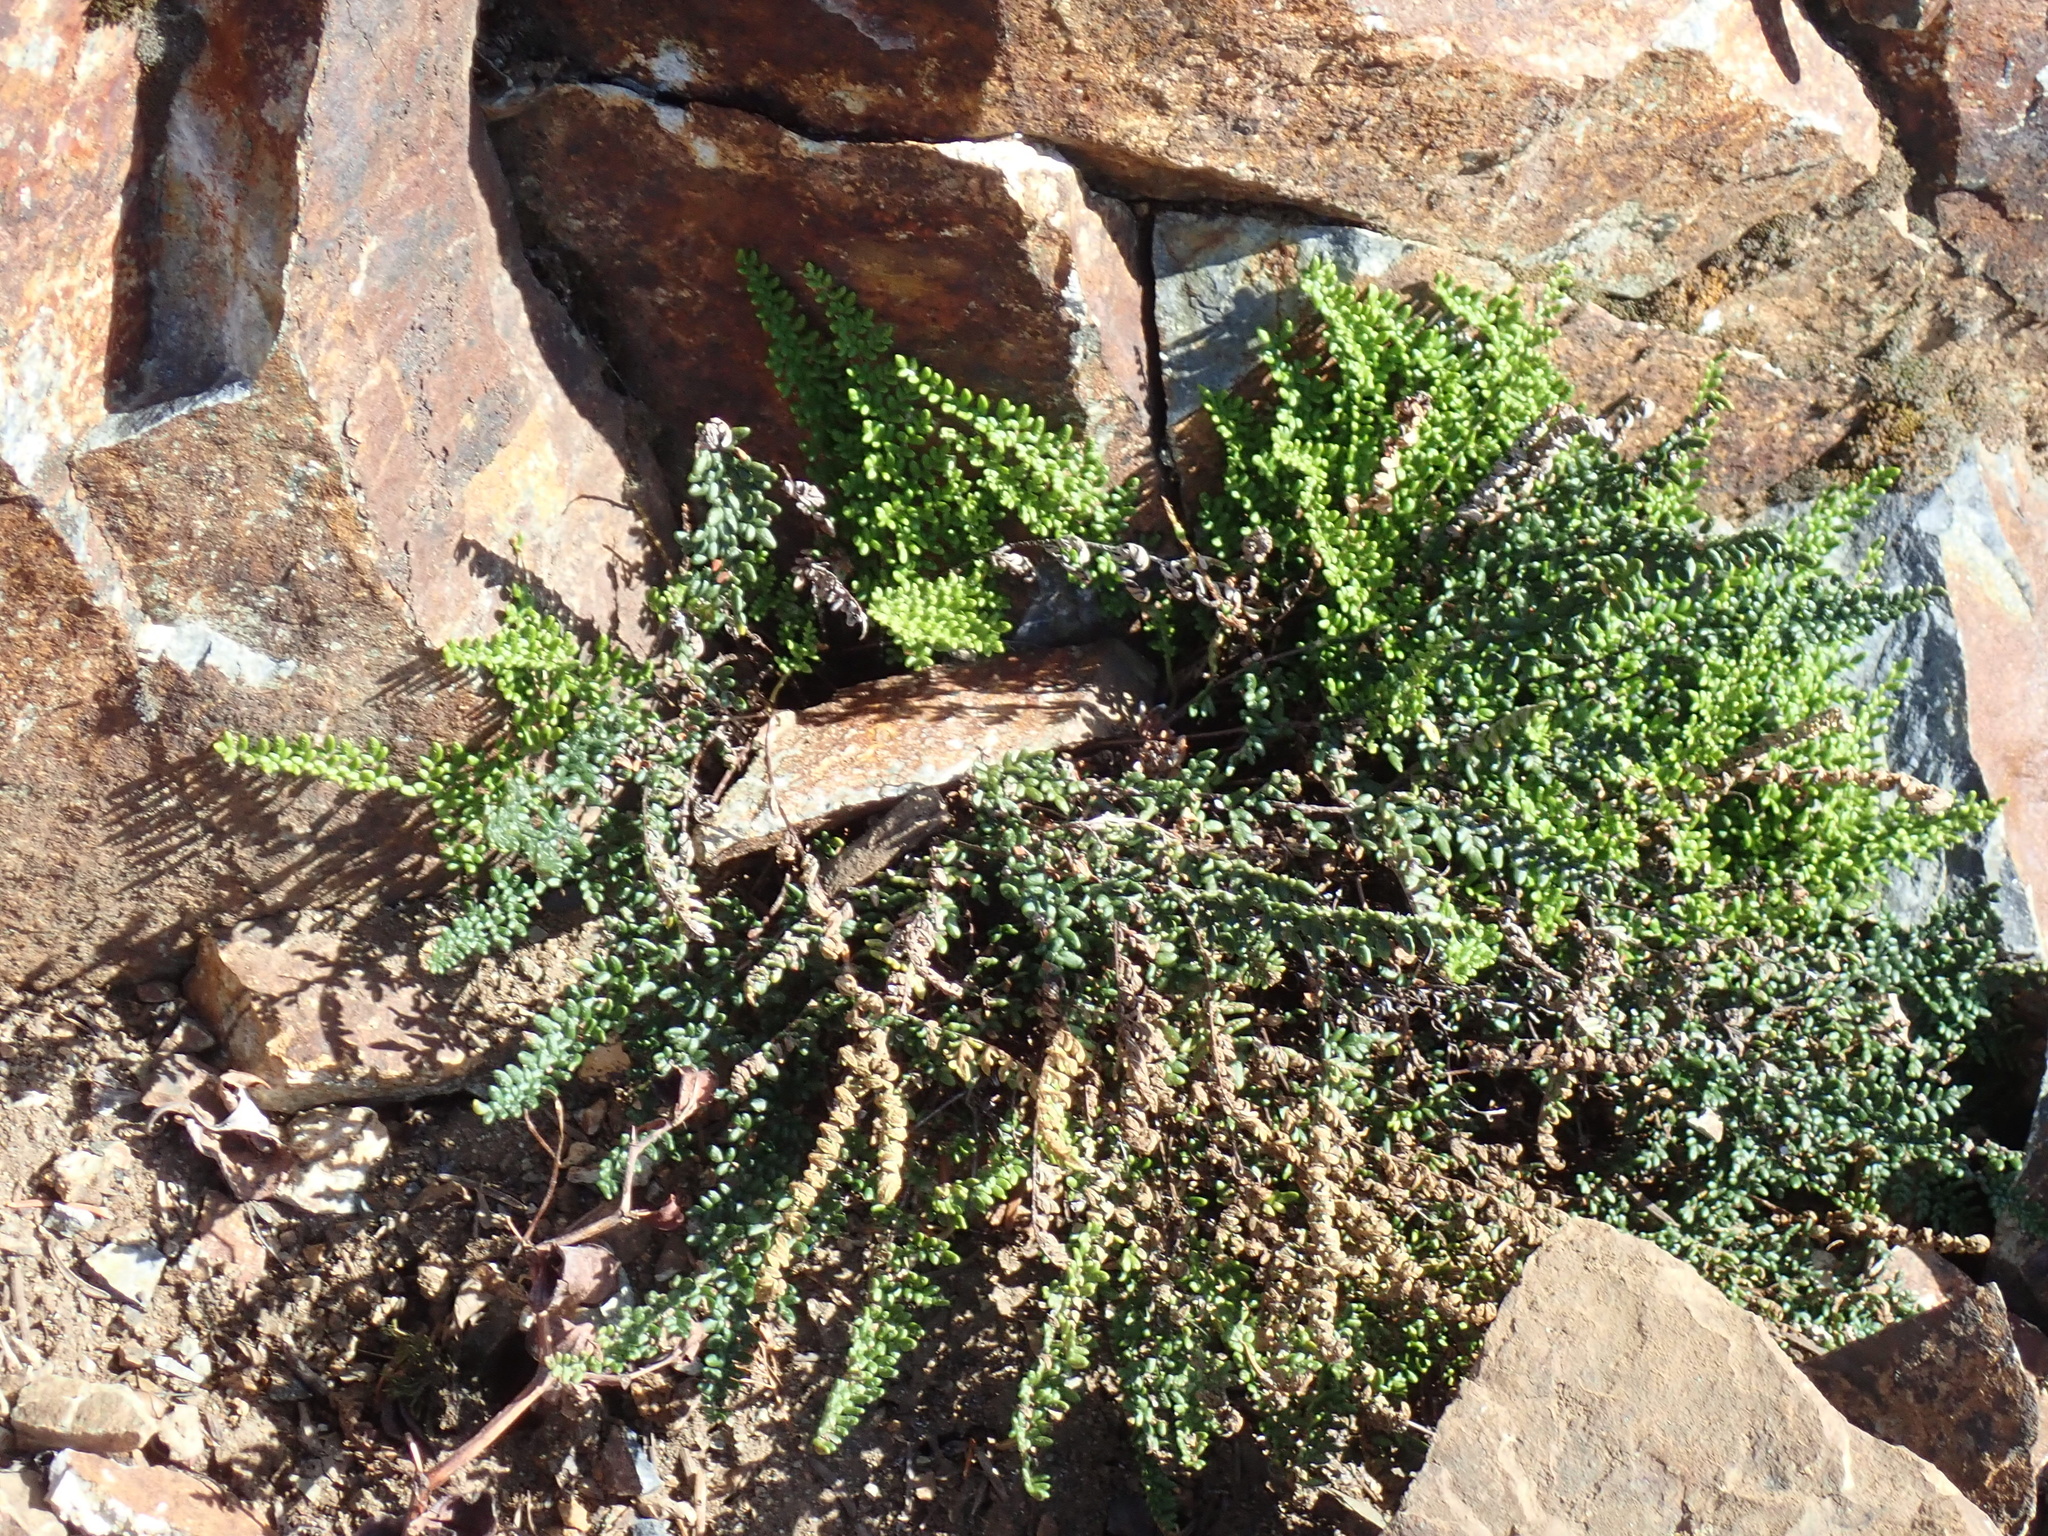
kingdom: Plantae
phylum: Tracheophyta
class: Polypodiopsida
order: Polypodiales
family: Pteridaceae
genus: Myriopteris
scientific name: Myriopteris gracillima
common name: Lace fern
